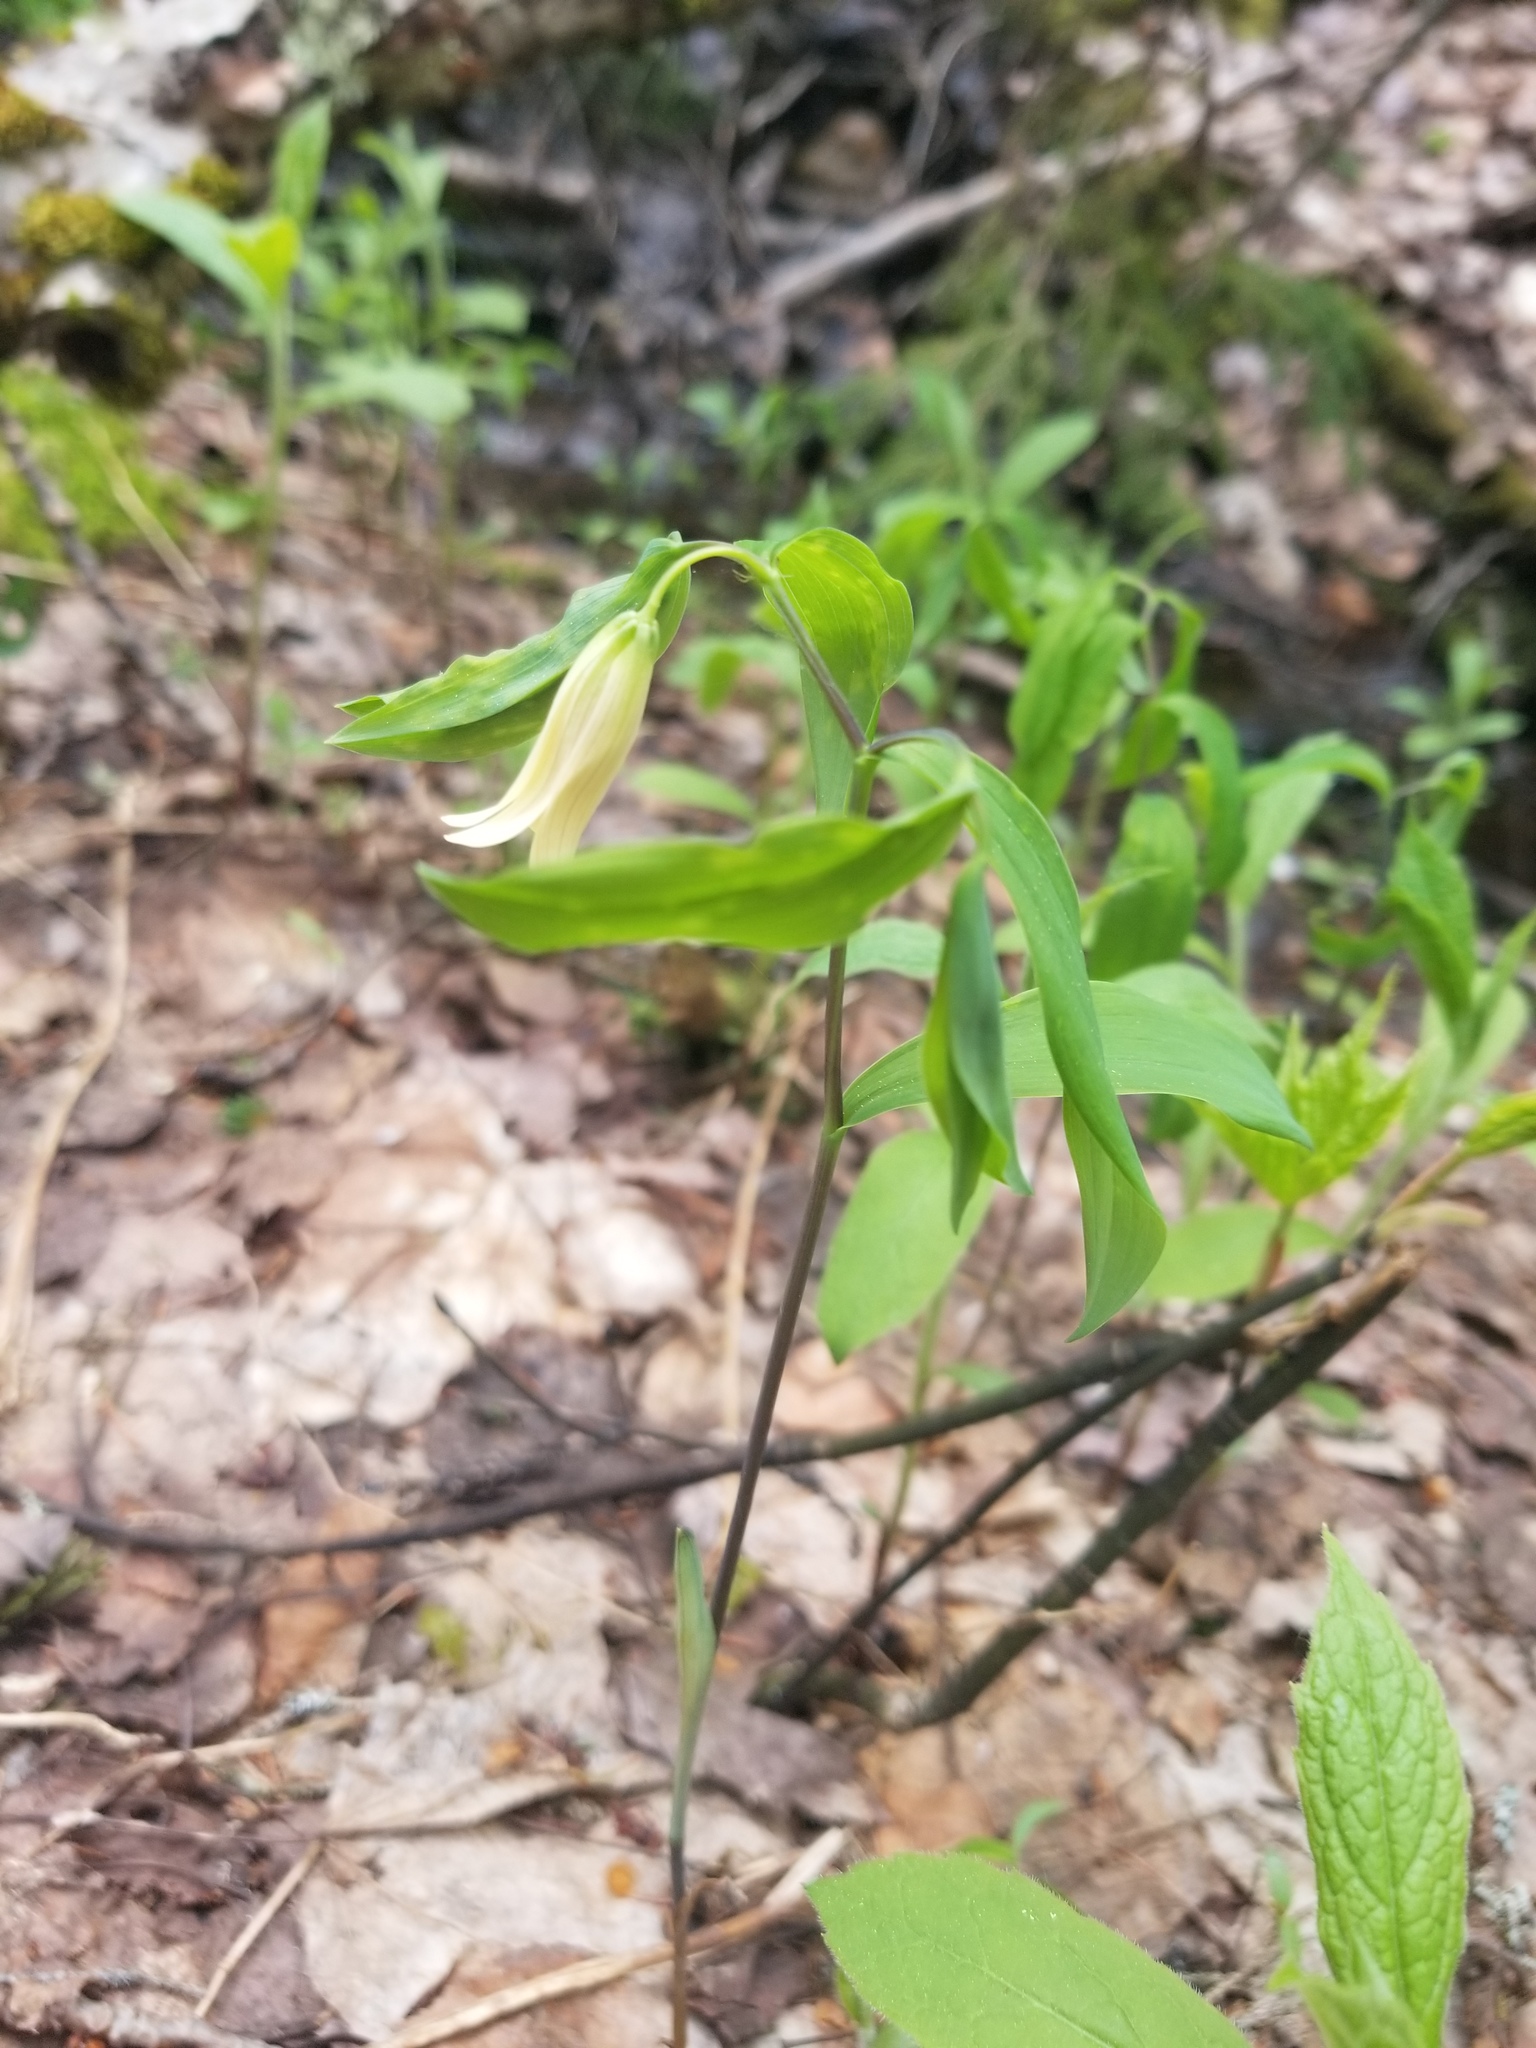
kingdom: Plantae
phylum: Tracheophyta
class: Liliopsida
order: Liliales
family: Colchicaceae
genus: Uvularia
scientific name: Uvularia sessilifolia
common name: Straw-lily
